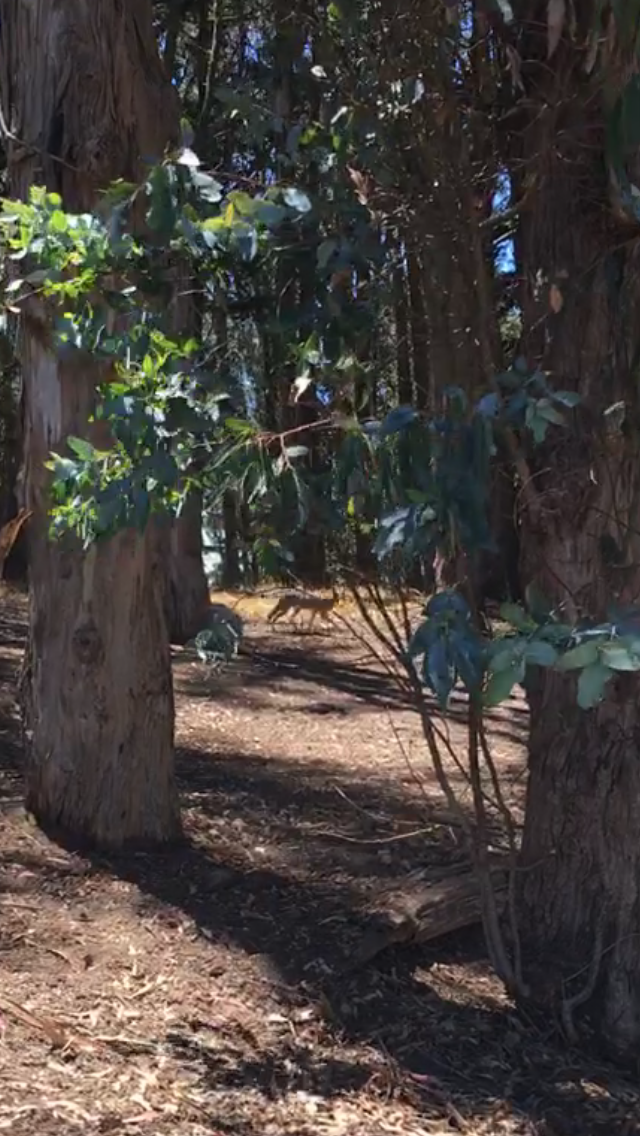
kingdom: Animalia
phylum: Chordata
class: Mammalia
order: Carnivora
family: Canidae
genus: Canis
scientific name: Canis latrans
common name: Coyote
